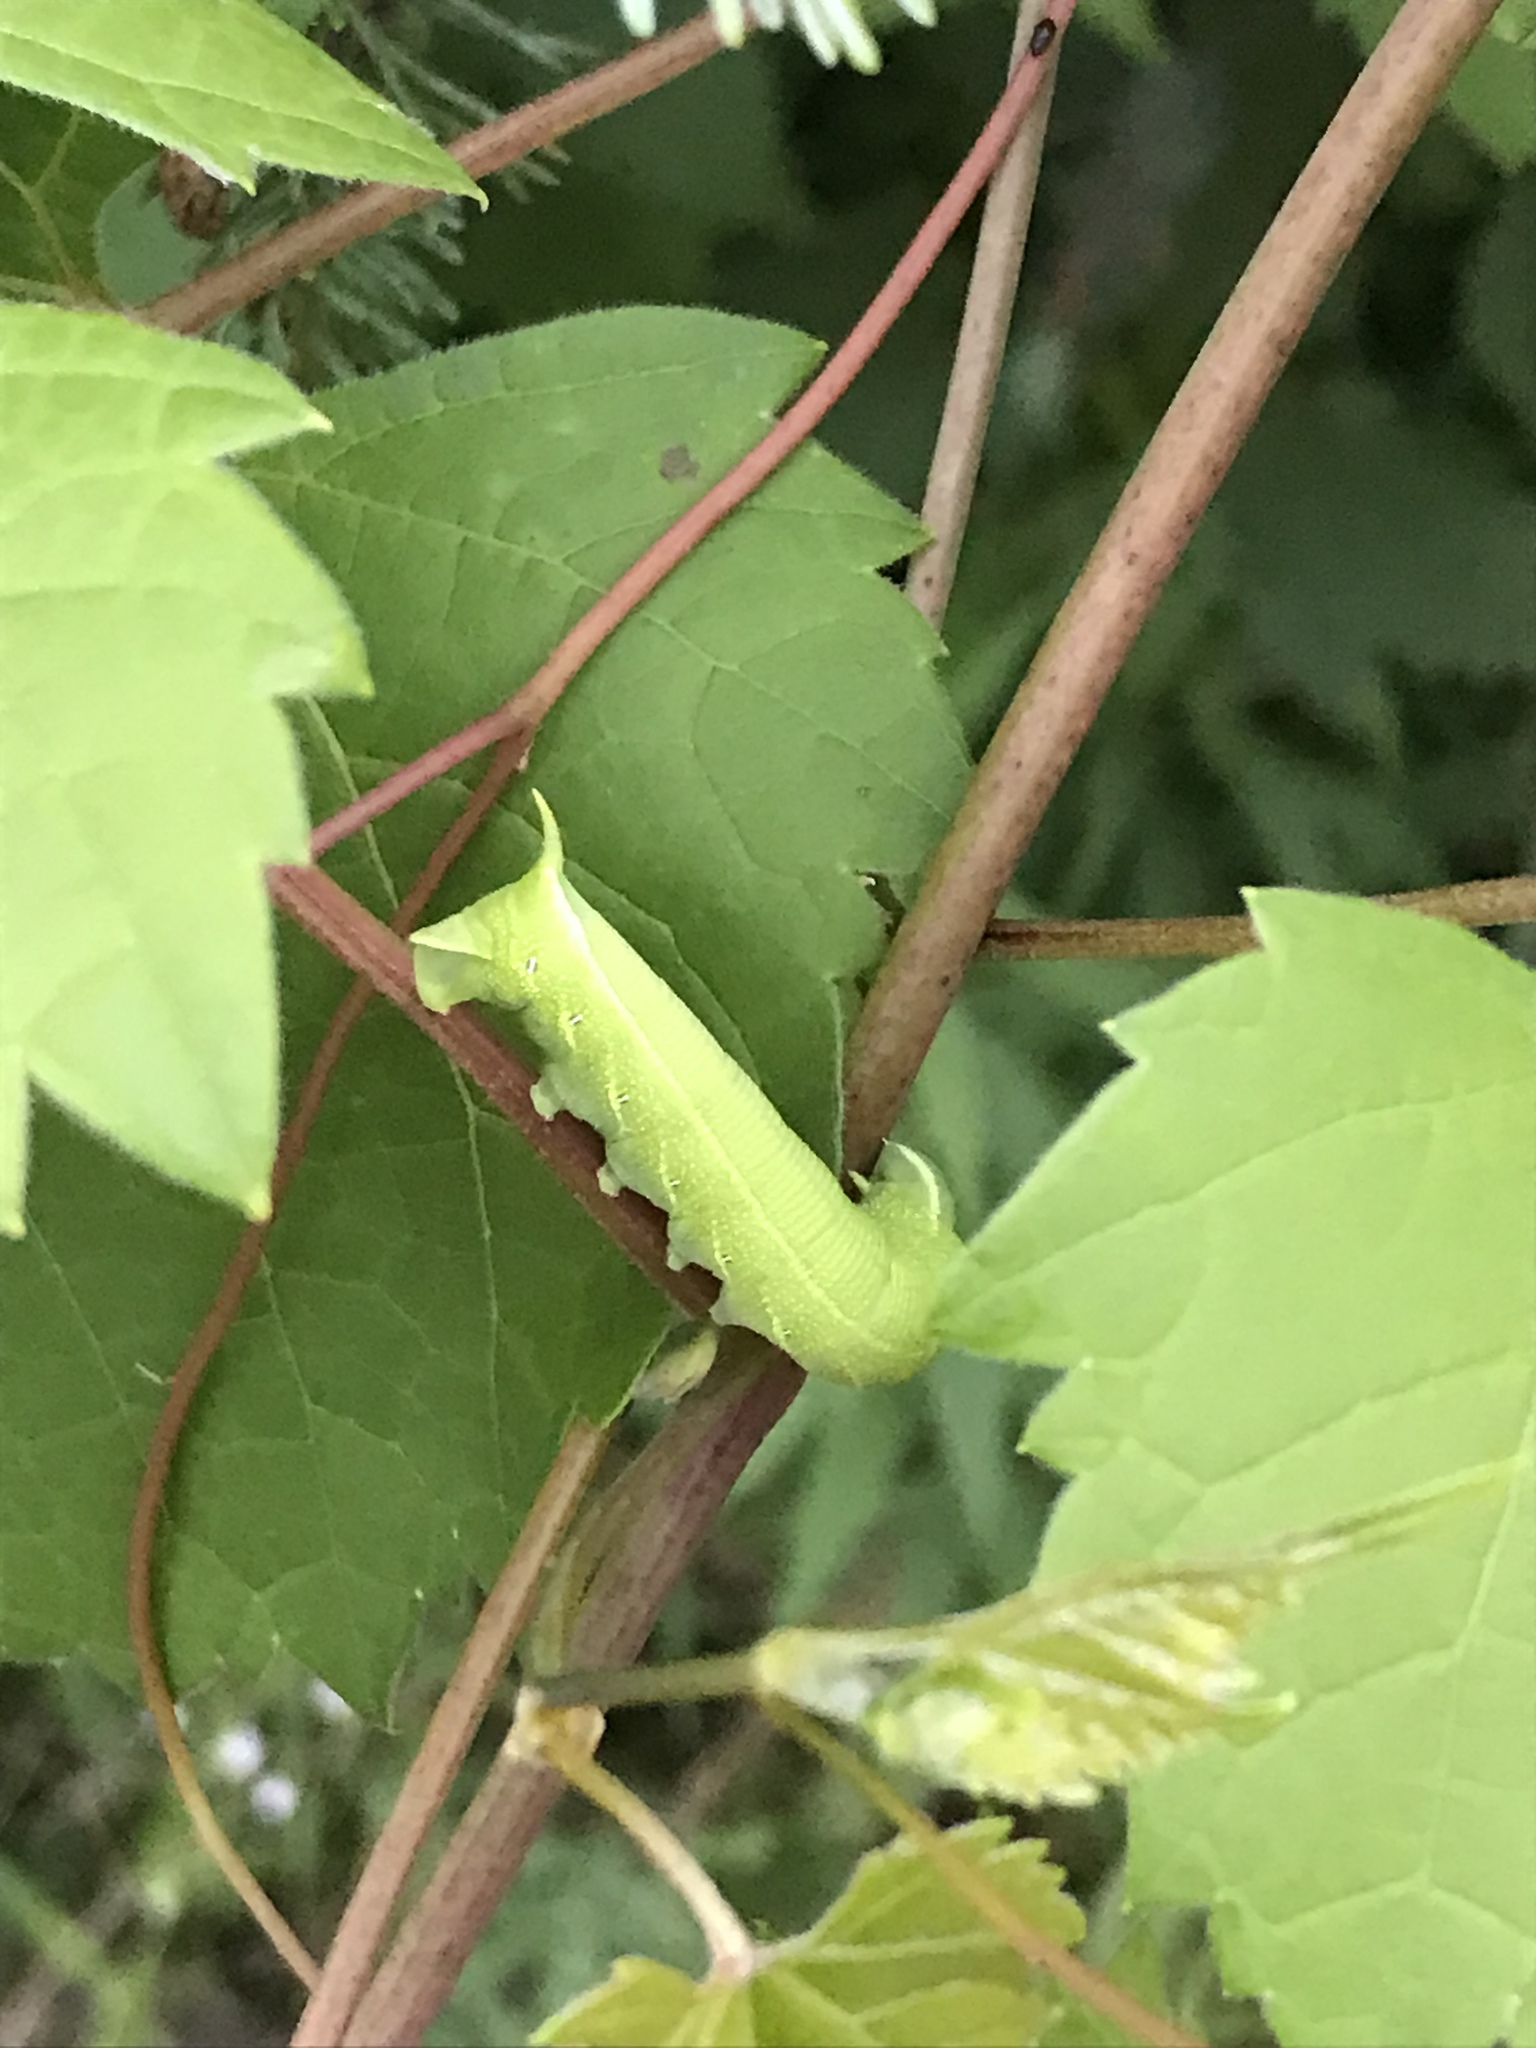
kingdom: Animalia
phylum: Arthropoda
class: Insecta
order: Lepidoptera
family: Sphingidae
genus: Deidamia
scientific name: Deidamia inscriptum
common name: Lettered sphinx
